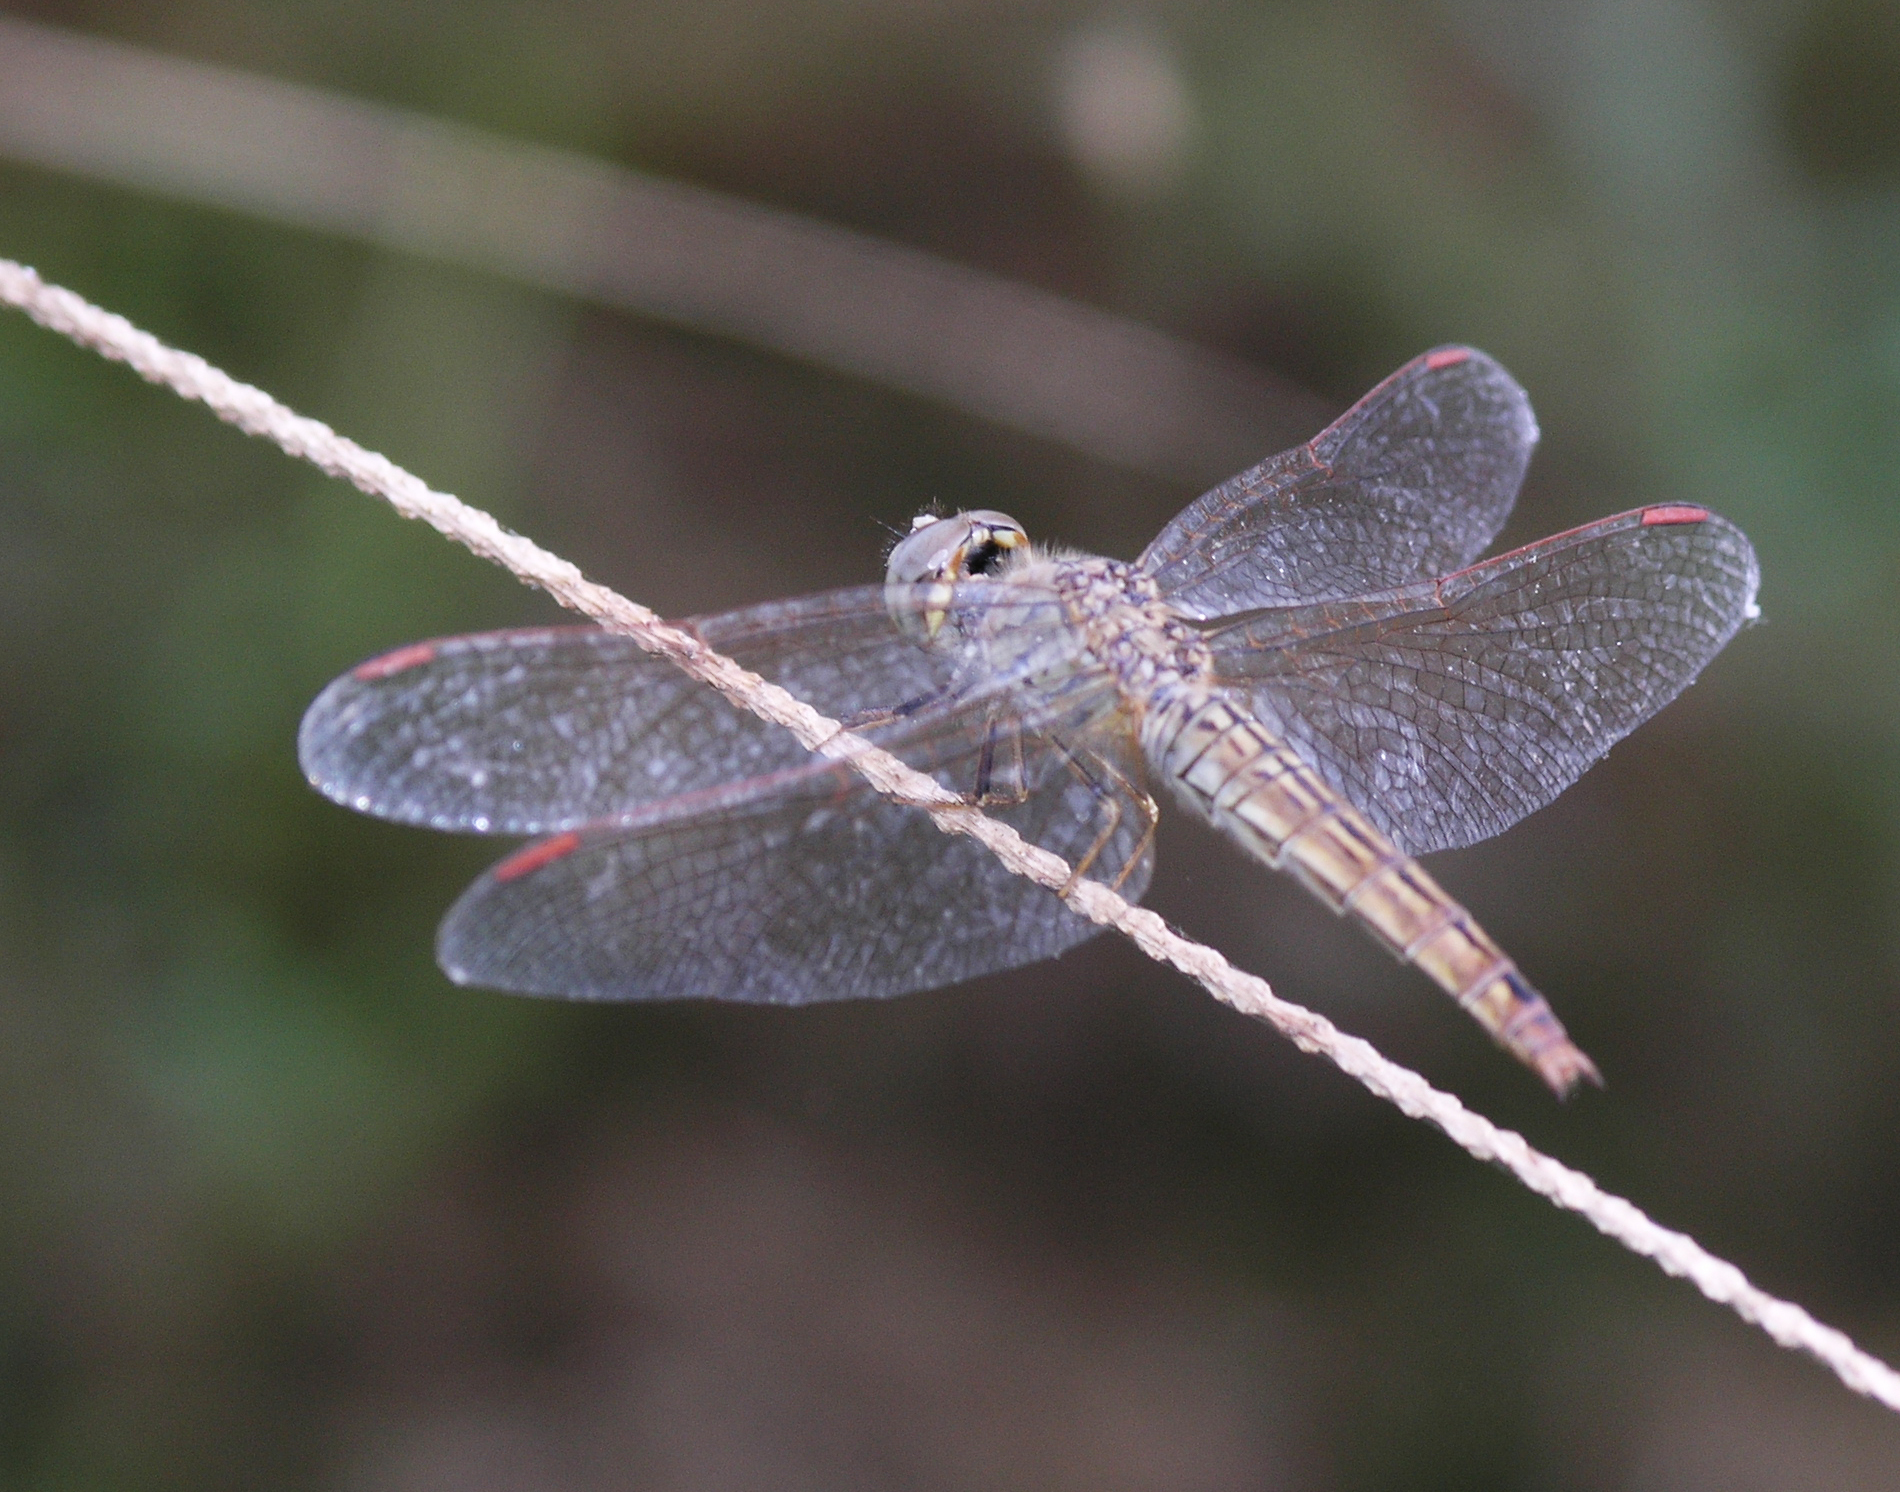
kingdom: Animalia
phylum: Arthropoda
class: Insecta
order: Odonata
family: Libellulidae
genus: Brachythemis
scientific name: Brachythemis contaminata
